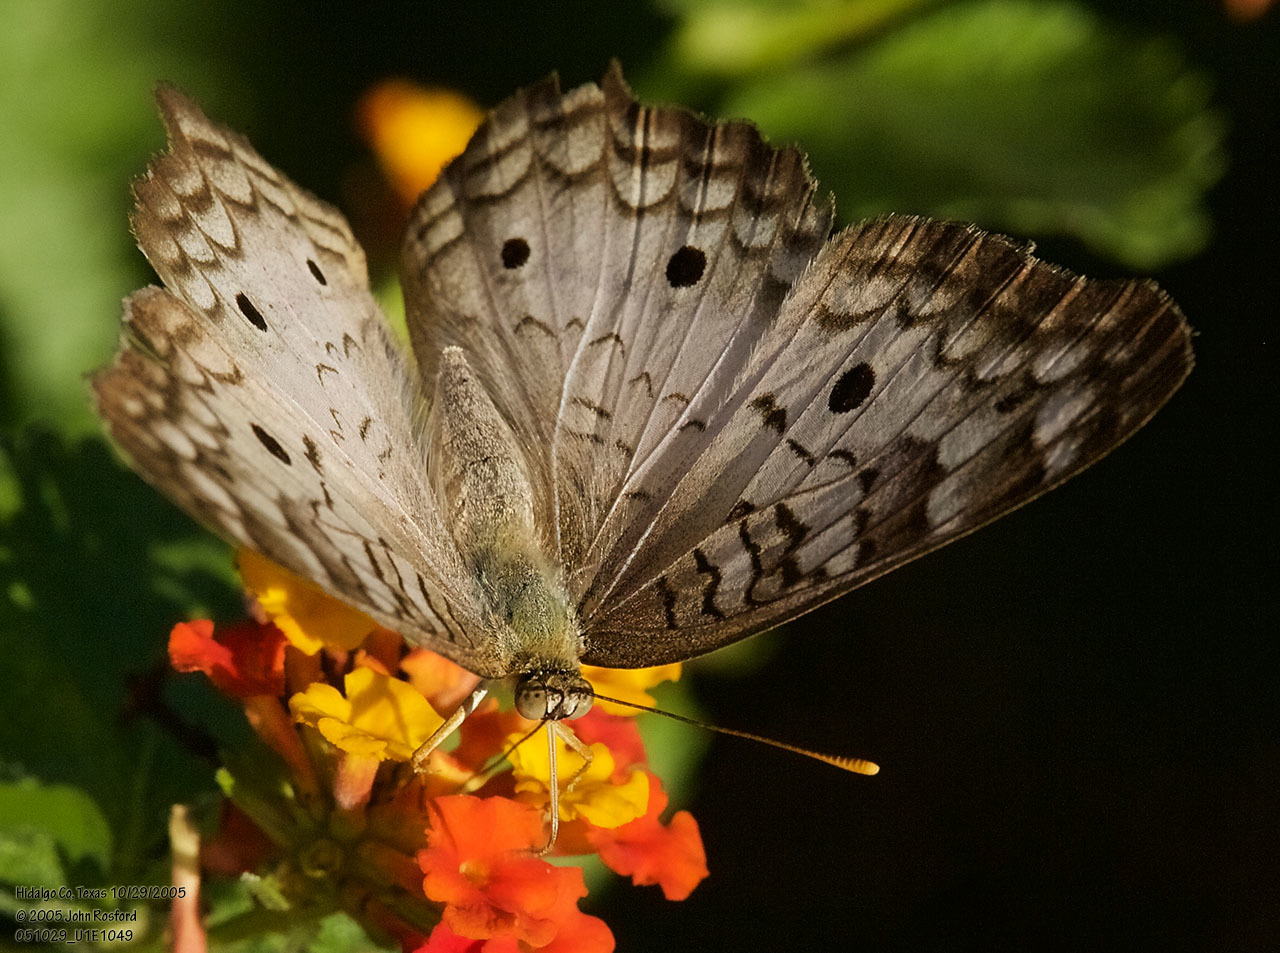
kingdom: Animalia
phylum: Arthropoda
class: Insecta
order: Lepidoptera
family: Nymphalidae
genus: Anartia
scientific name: Anartia jatrophae
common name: White peacock
